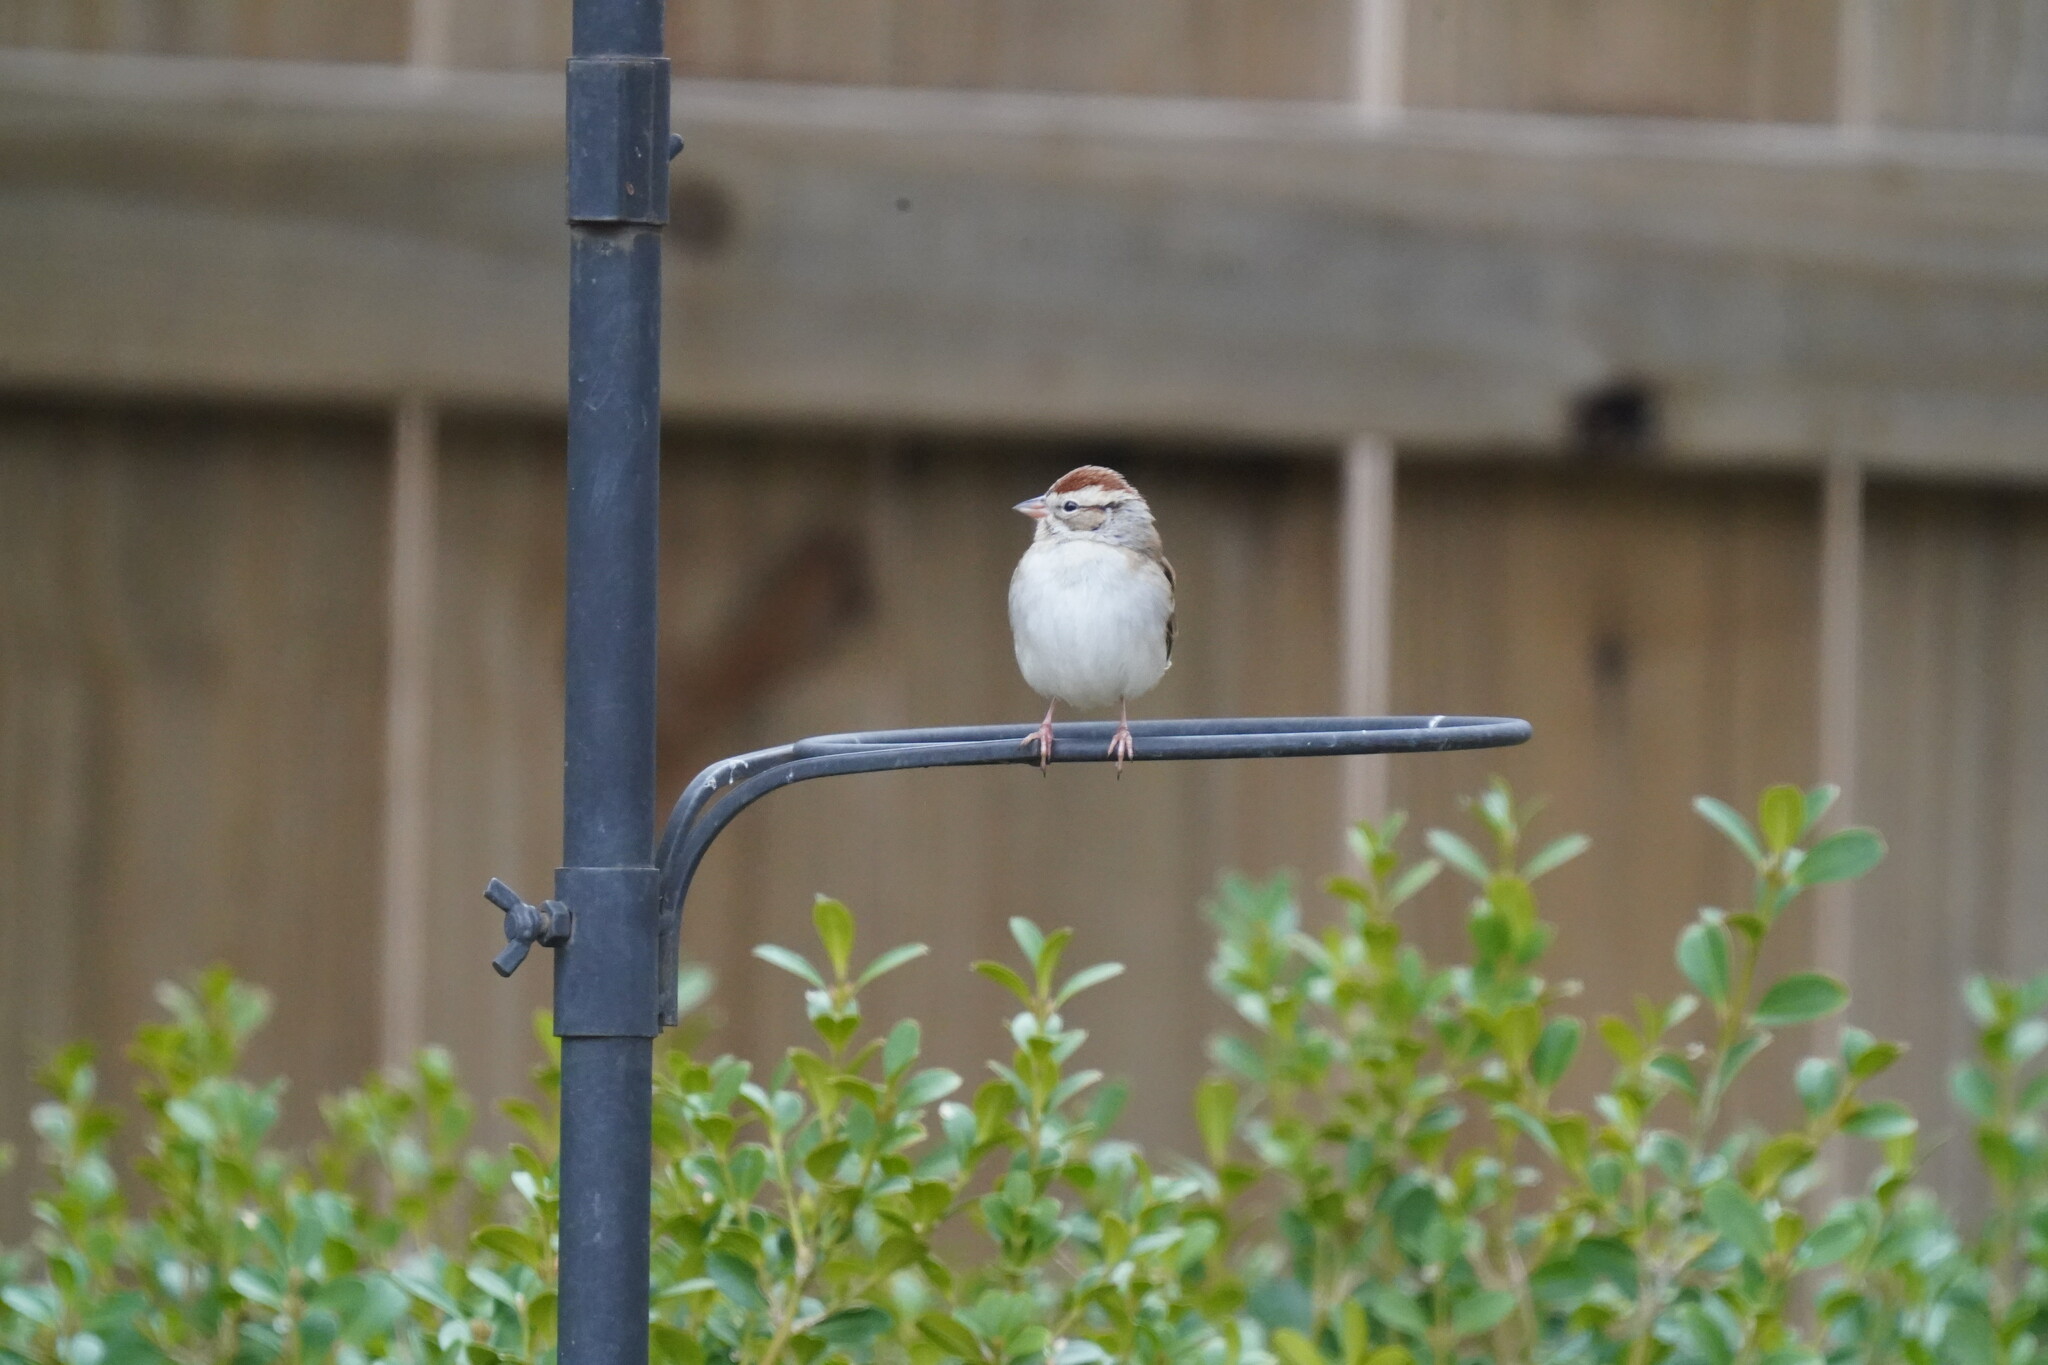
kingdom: Animalia
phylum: Chordata
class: Aves
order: Passeriformes
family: Passerellidae
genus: Spizella
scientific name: Spizella passerina
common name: Chipping sparrow
